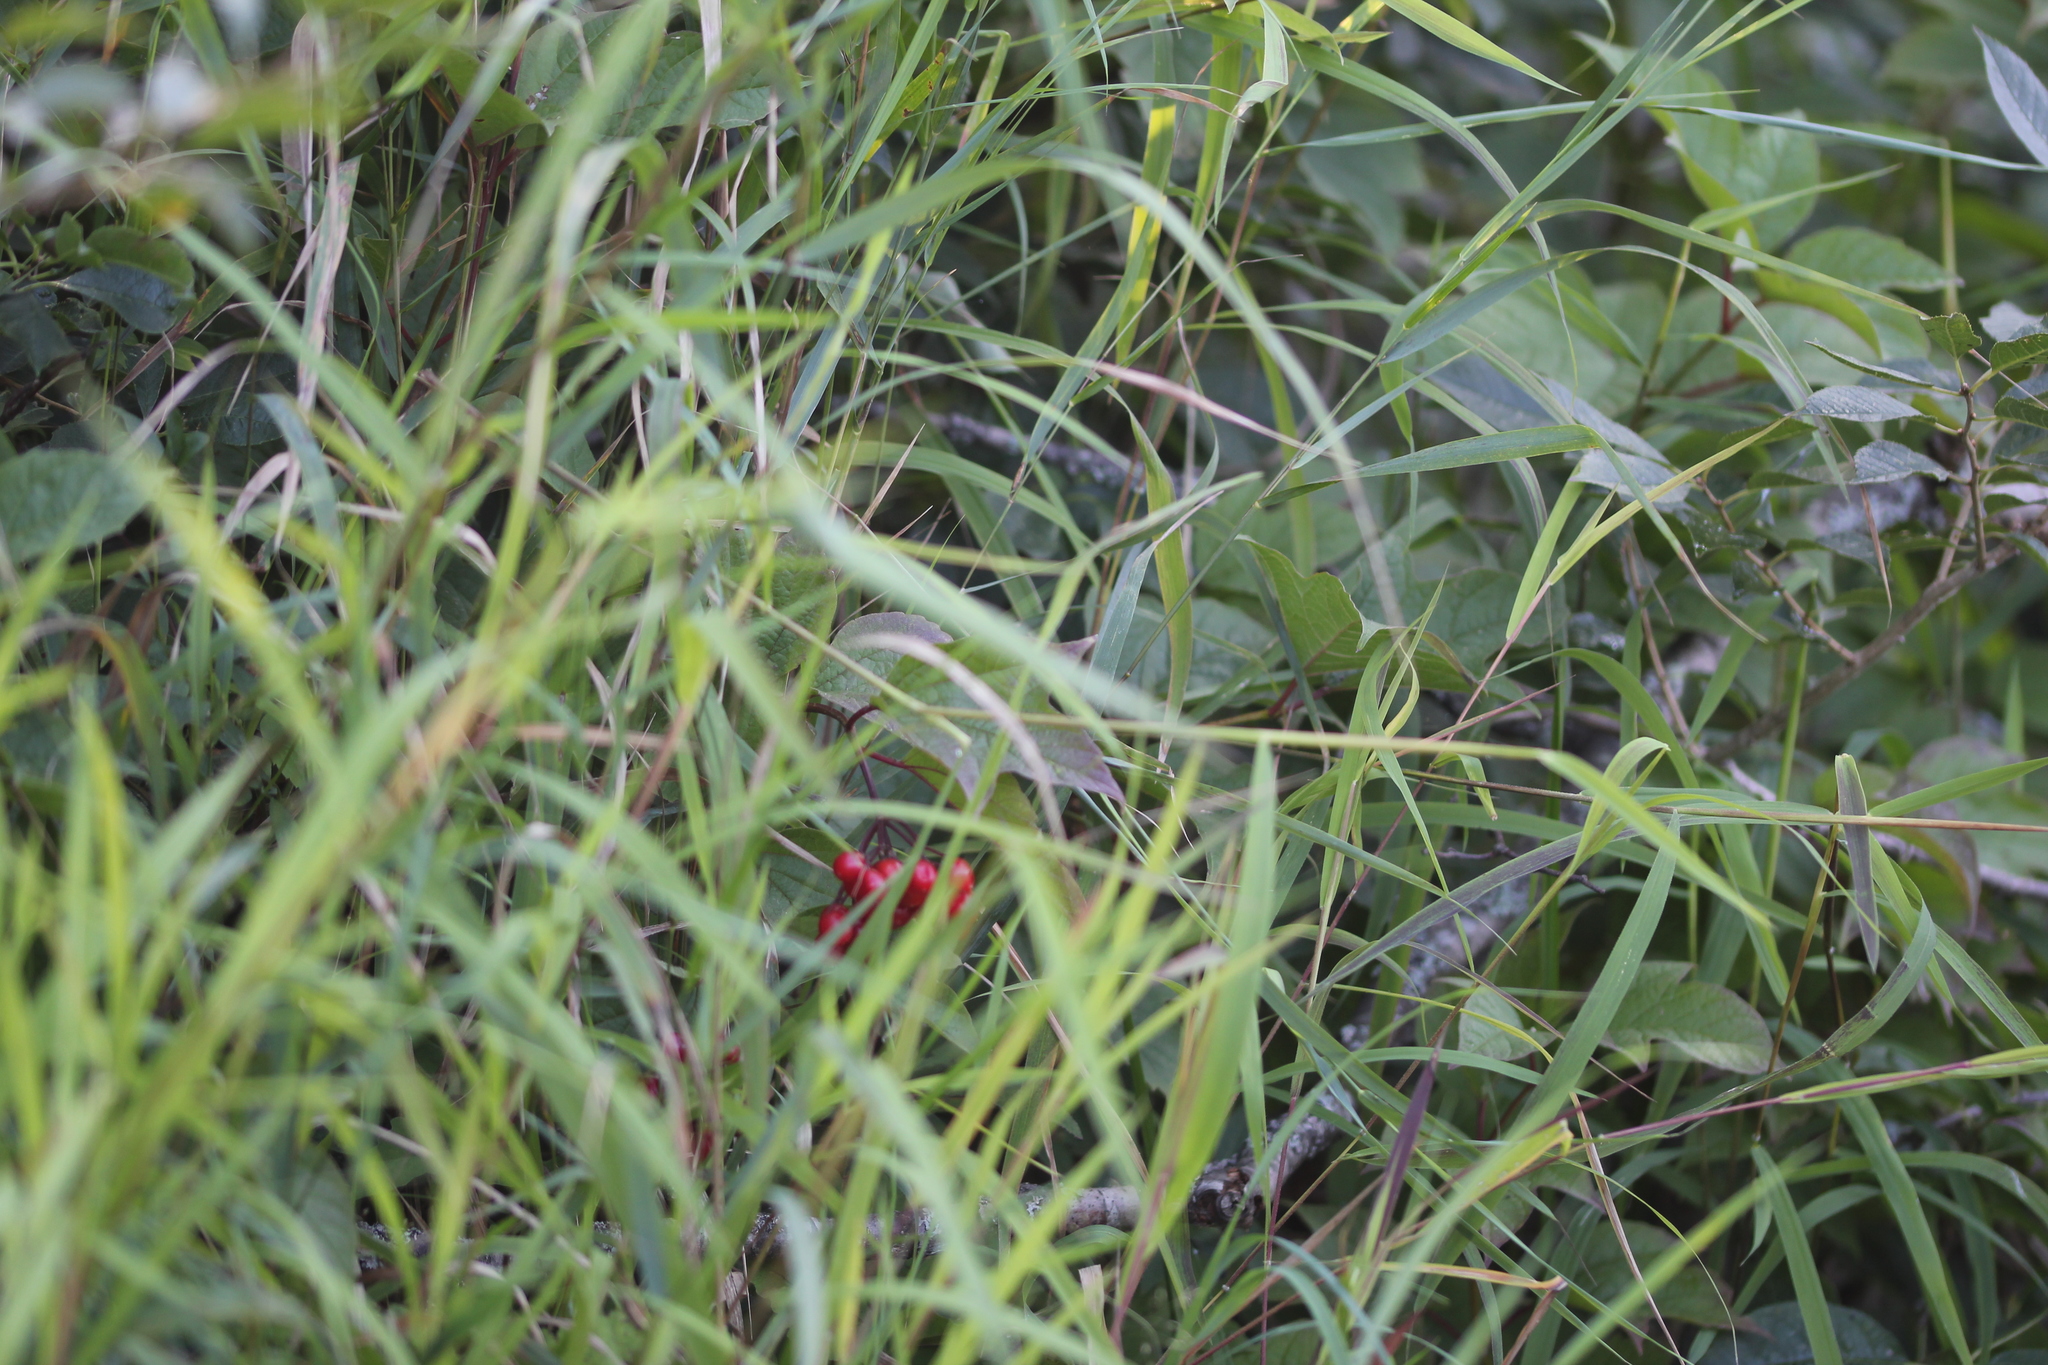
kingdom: Plantae
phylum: Tracheophyta
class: Magnoliopsida
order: Dipsacales
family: Viburnaceae
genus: Viburnum
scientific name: Viburnum trilobum
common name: American cranberrybush
